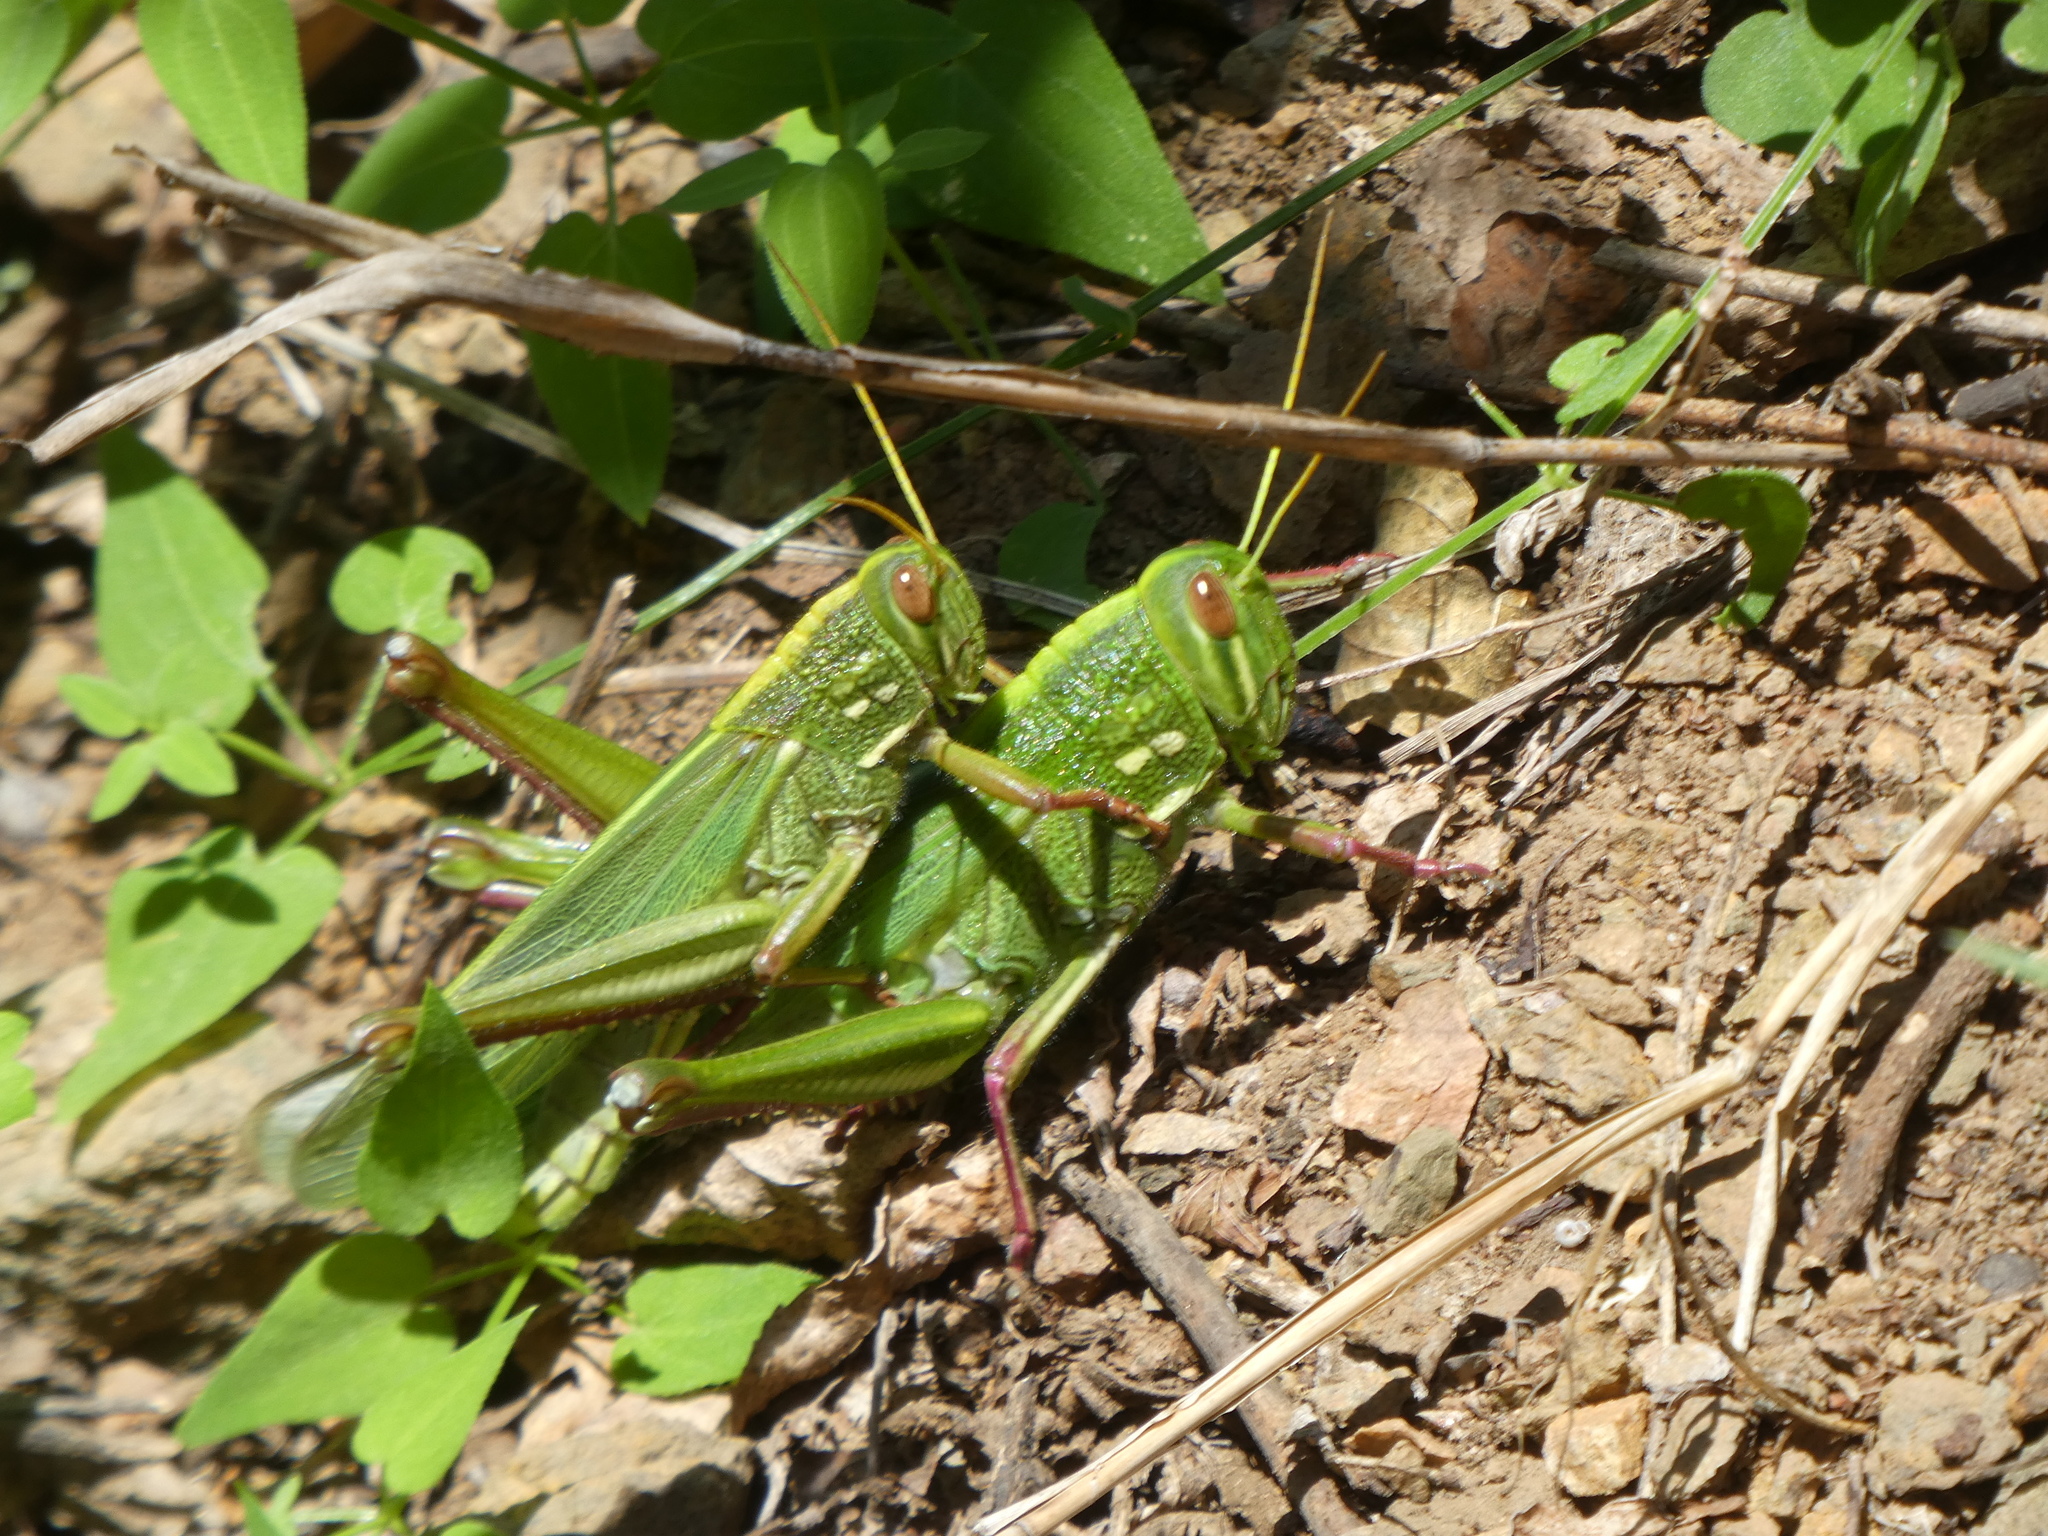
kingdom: Animalia
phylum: Arthropoda
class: Insecta
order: Orthoptera
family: Acrididae
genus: Chondracris
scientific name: Chondracris rosea
